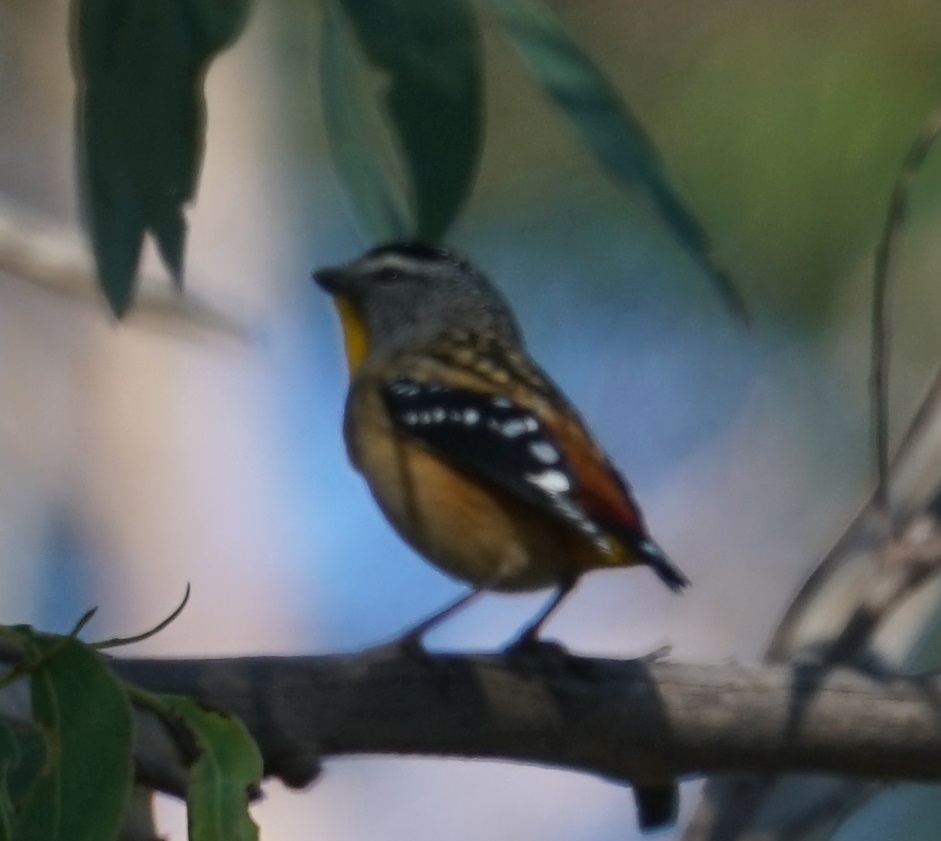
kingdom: Animalia
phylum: Chordata
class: Aves
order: Passeriformes
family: Pardalotidae
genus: Pardalotus
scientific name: Pardalotus punctatus
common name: Spotted pardalote
